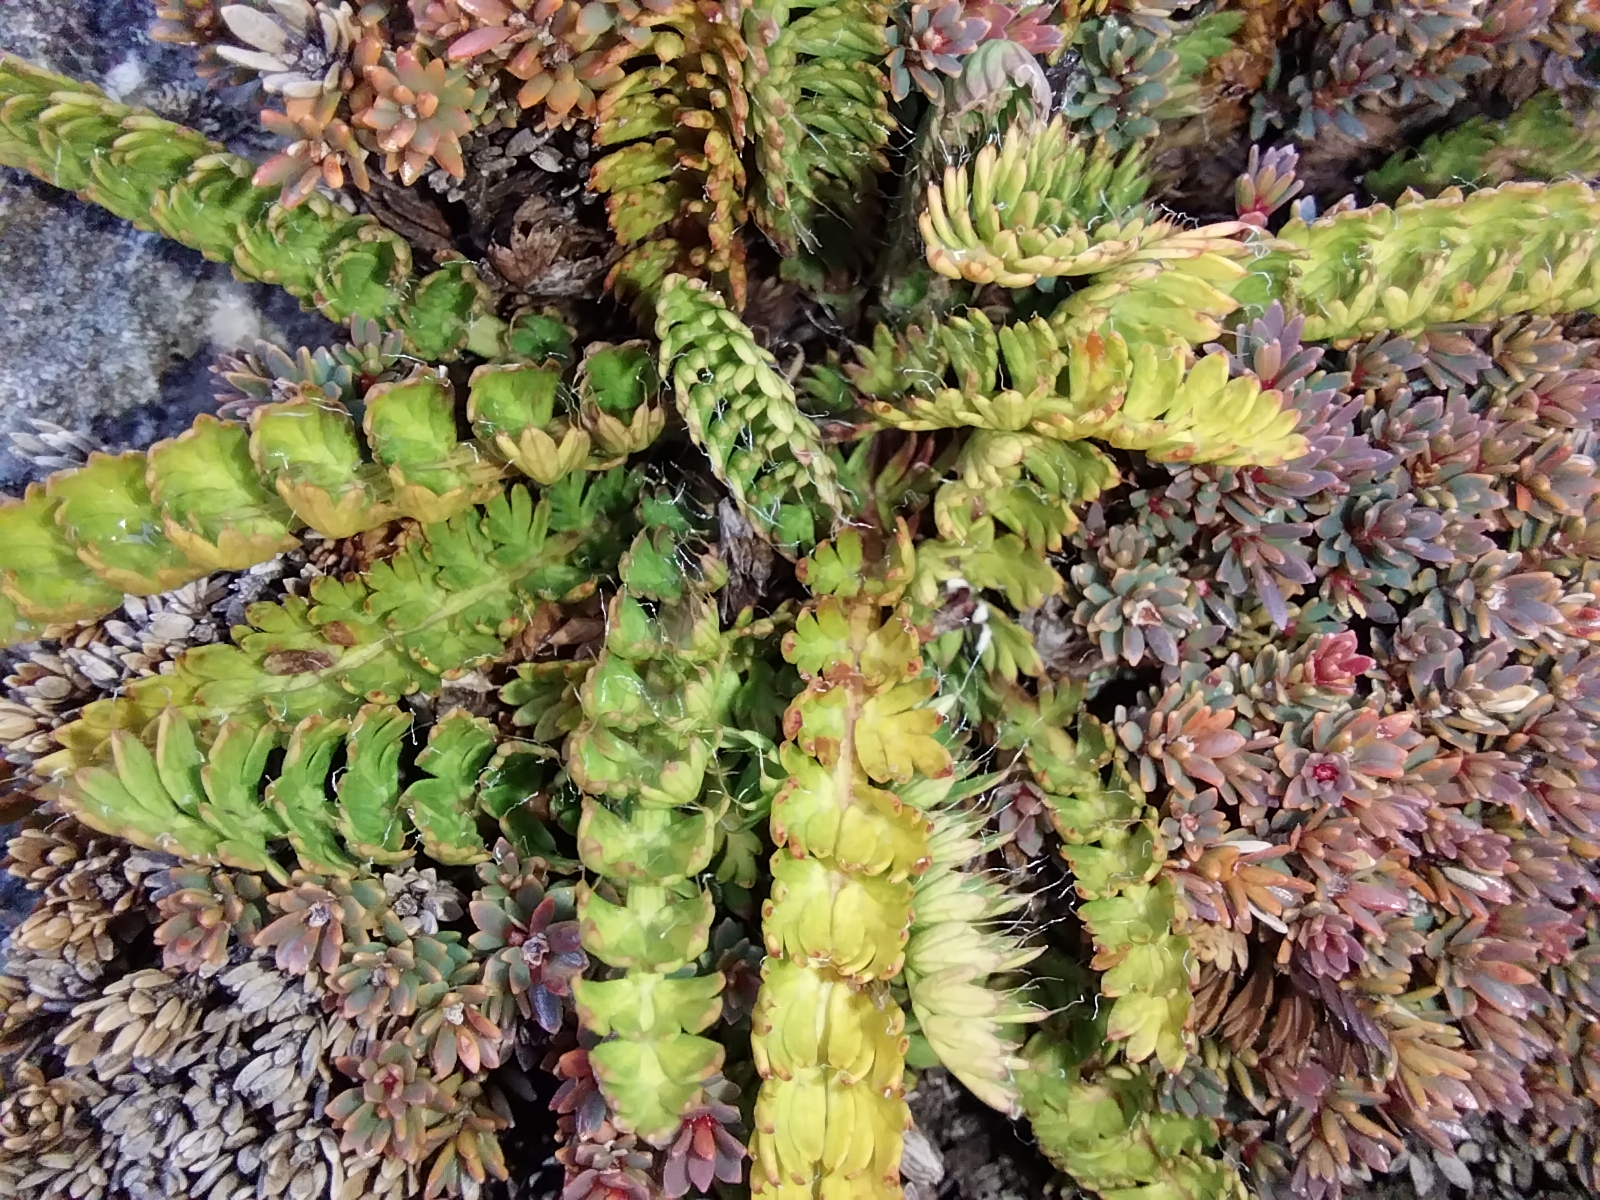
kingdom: Plantae
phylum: Tracheophyta
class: Magnoliopsida
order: Apiales
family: Apiaceae
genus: Anisotome
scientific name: Anisotome flexuosa
